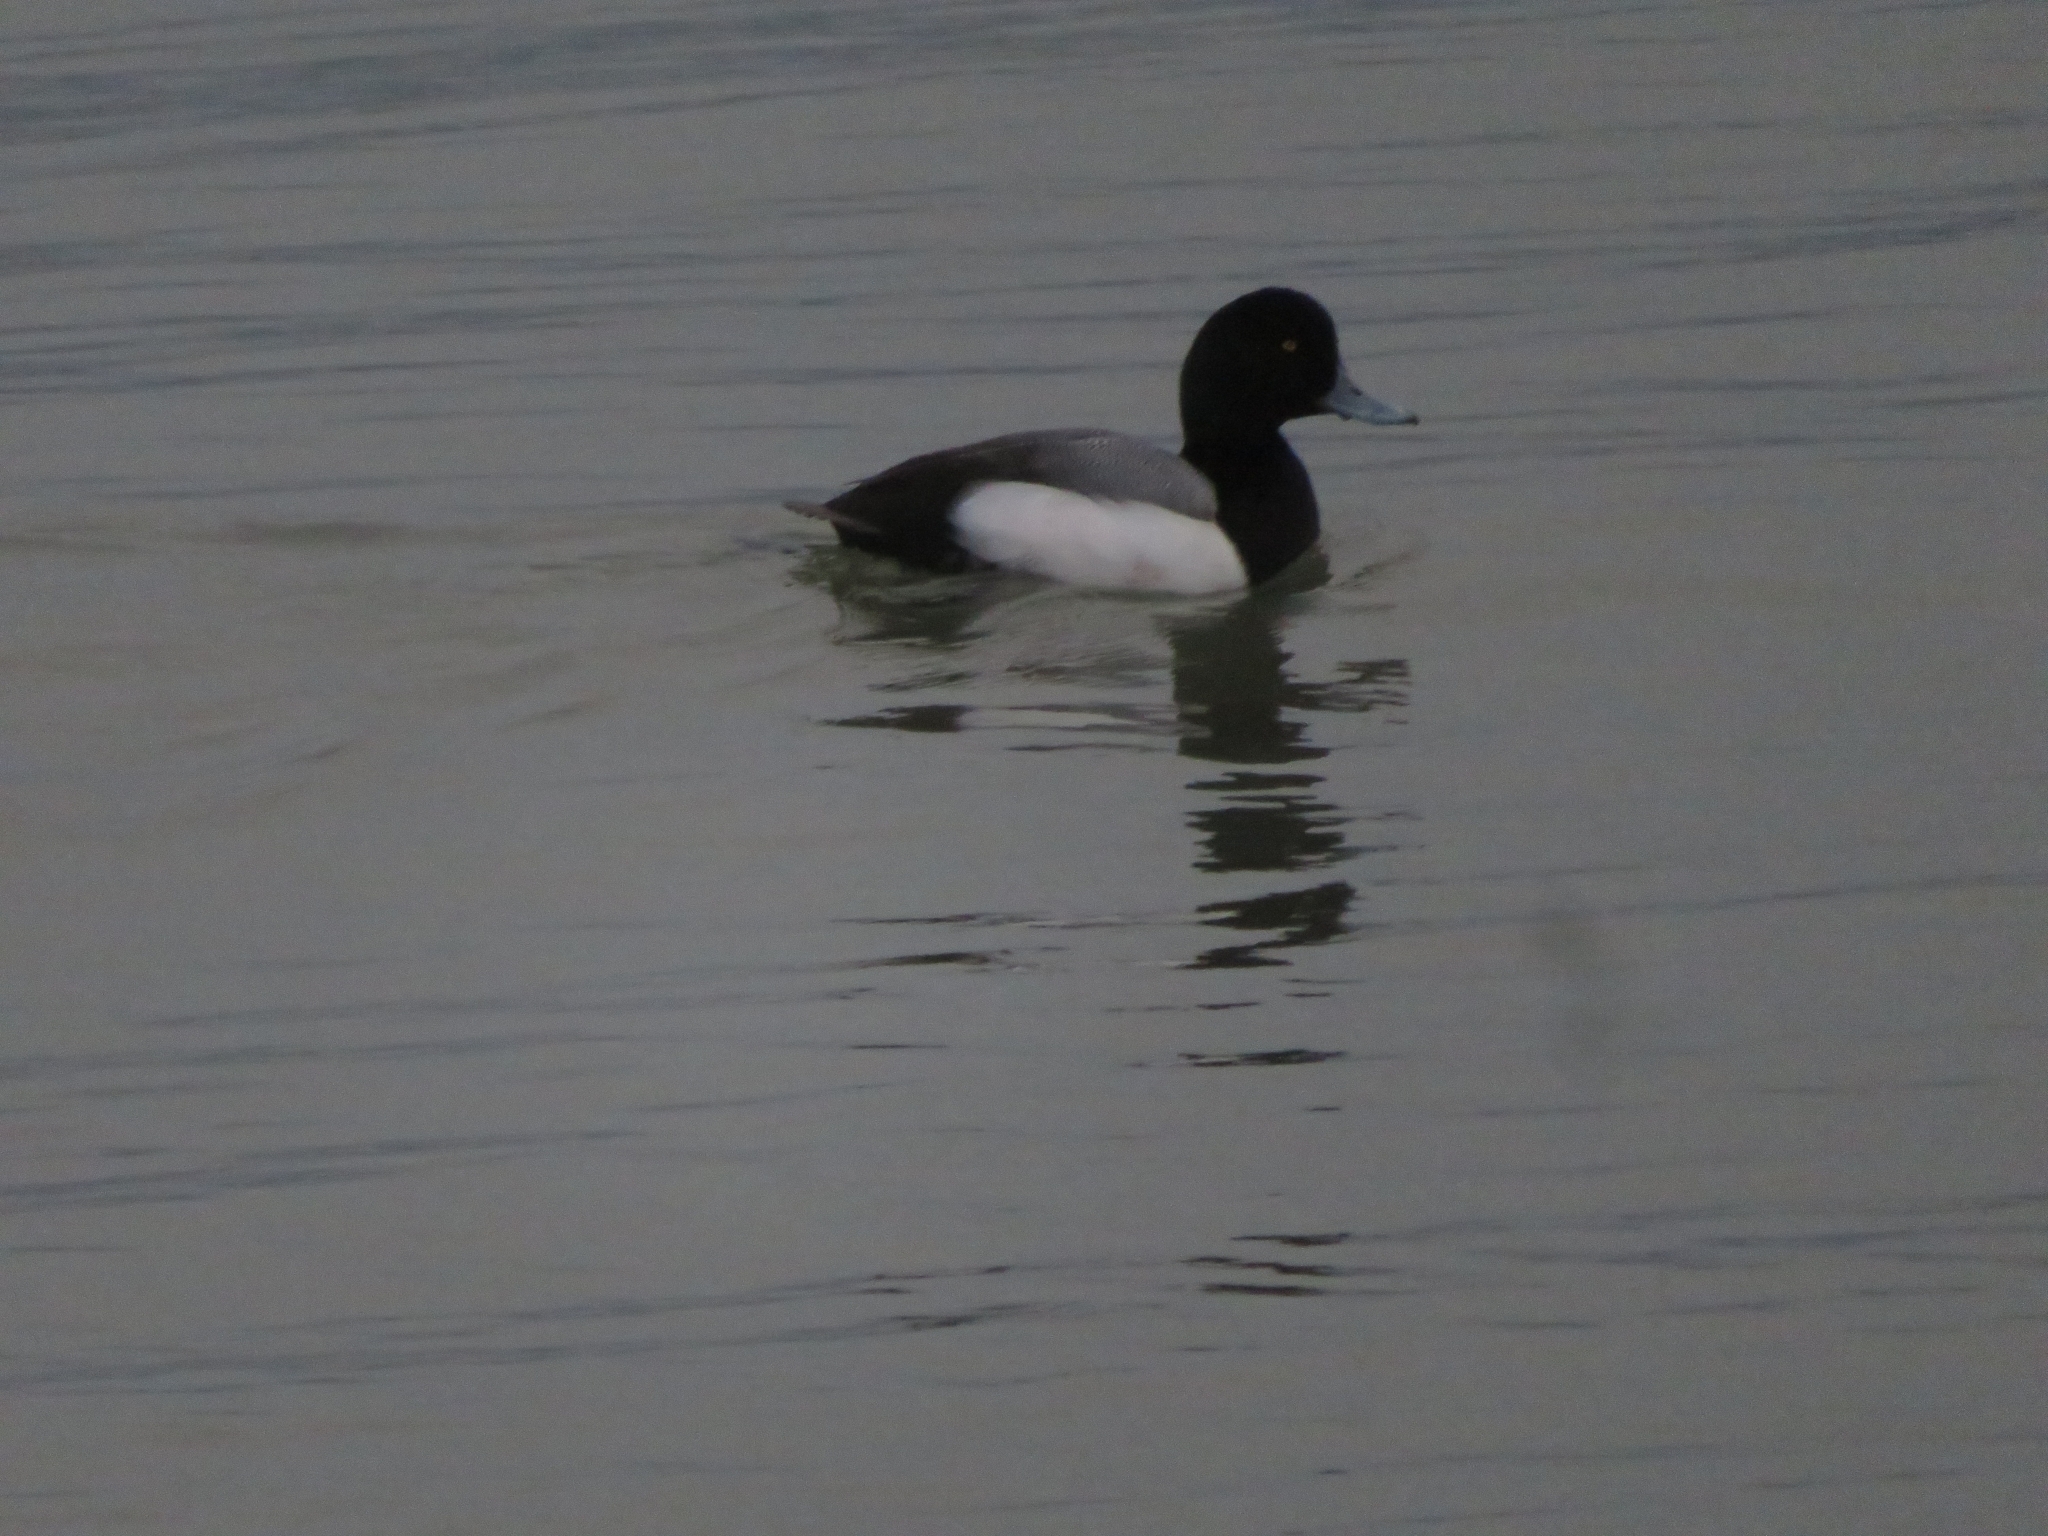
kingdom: Animalia
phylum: Chordata
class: Aves
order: Anseriformes
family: Anatidae
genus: Aythya
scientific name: Aythya marila
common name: Greater scaup
